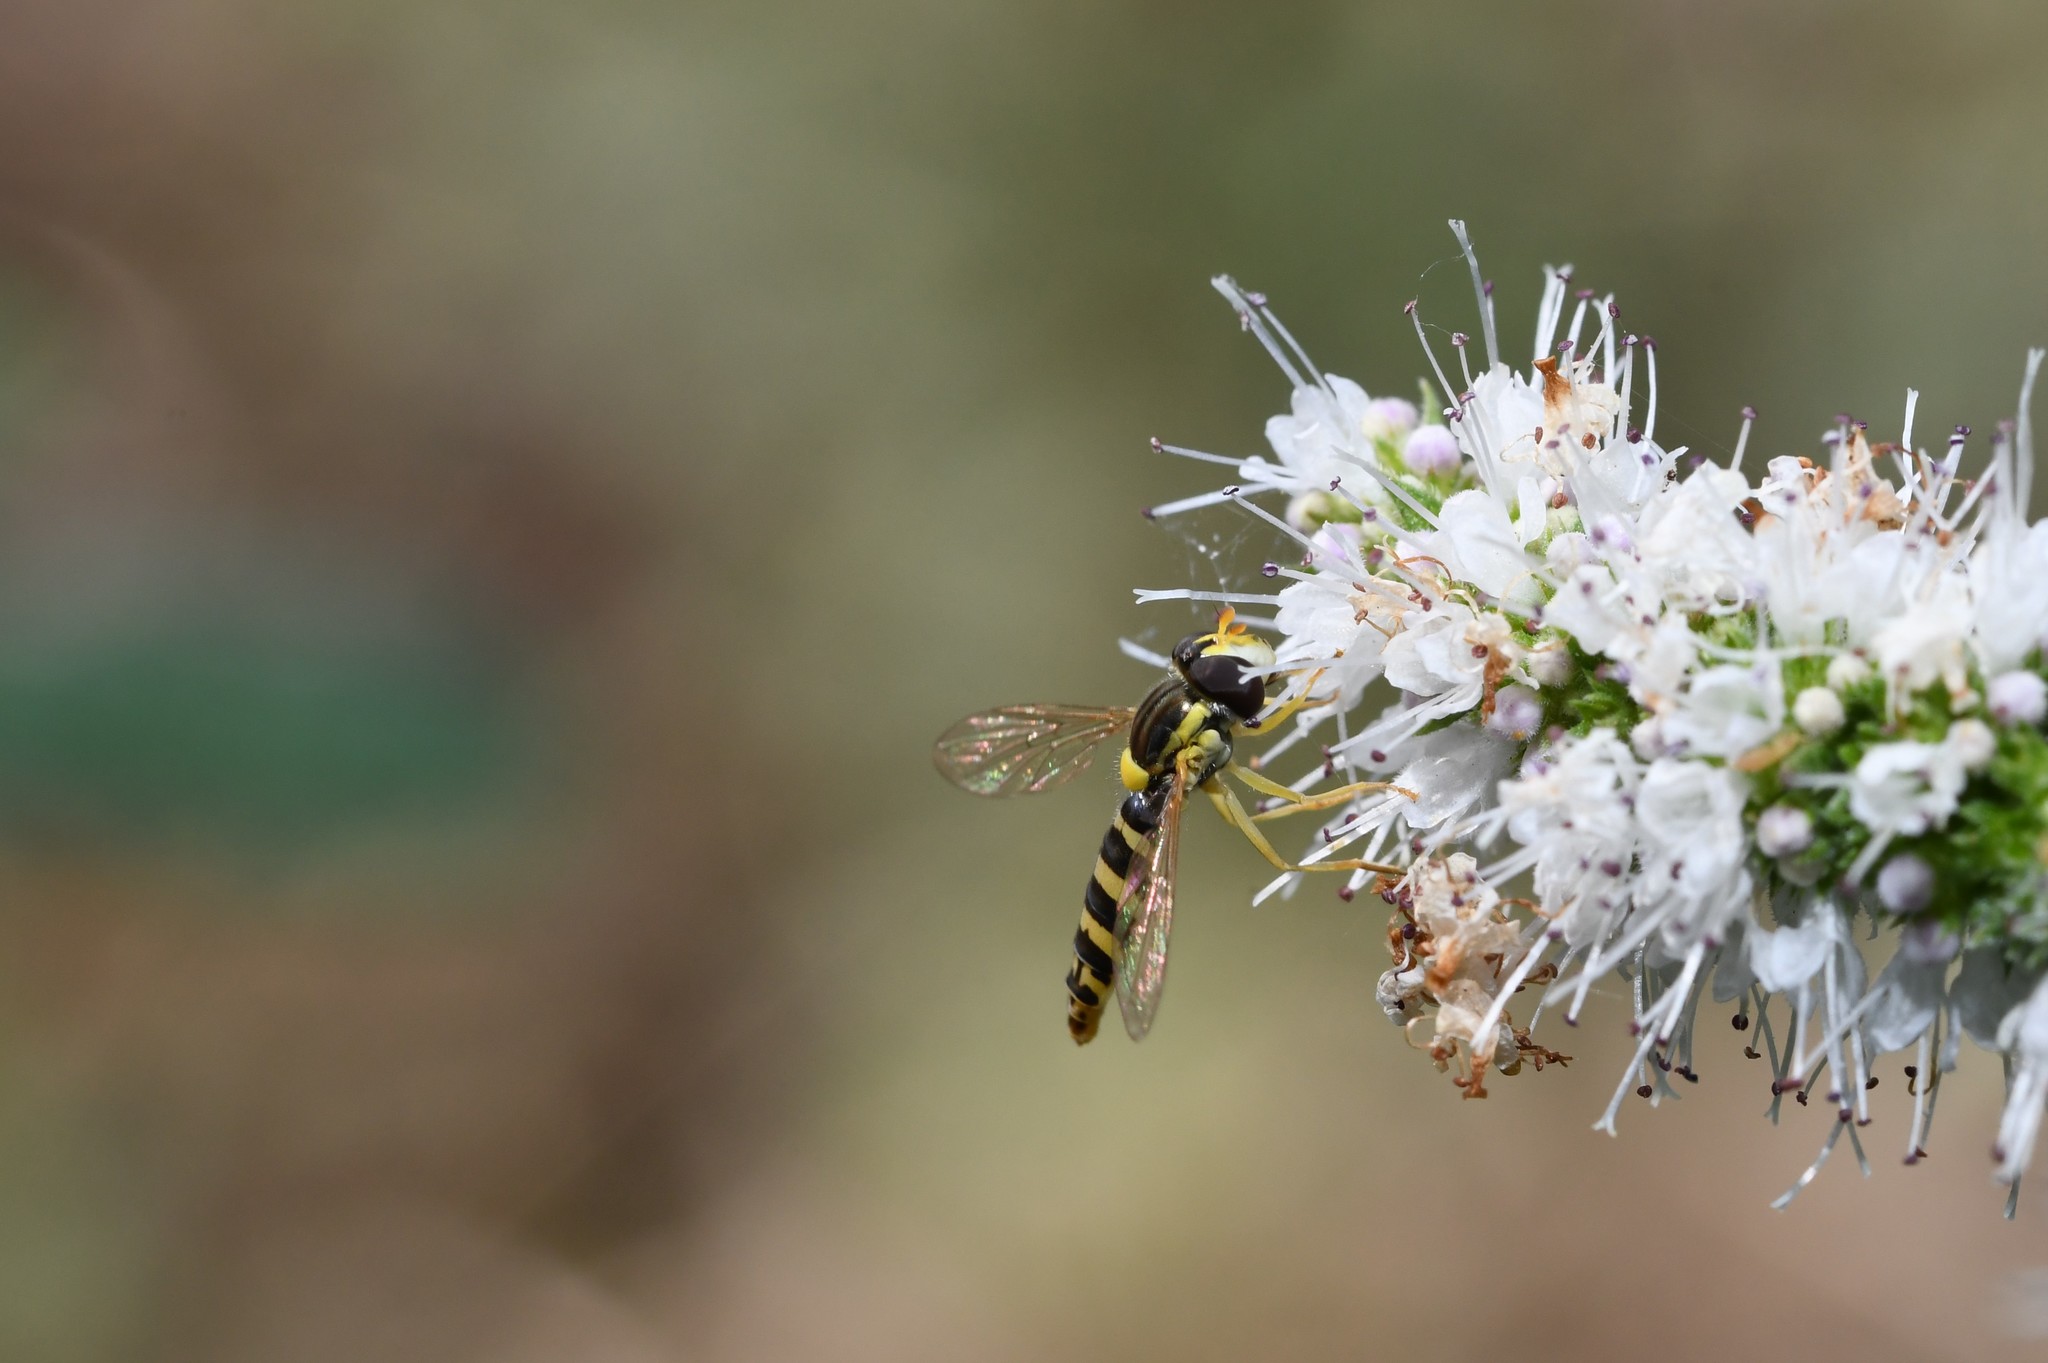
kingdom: Animalia
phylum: Arthropoda
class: Insecta
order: Diptera
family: Syrphidae
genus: Sphaerophoria
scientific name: Sphaerophoria
